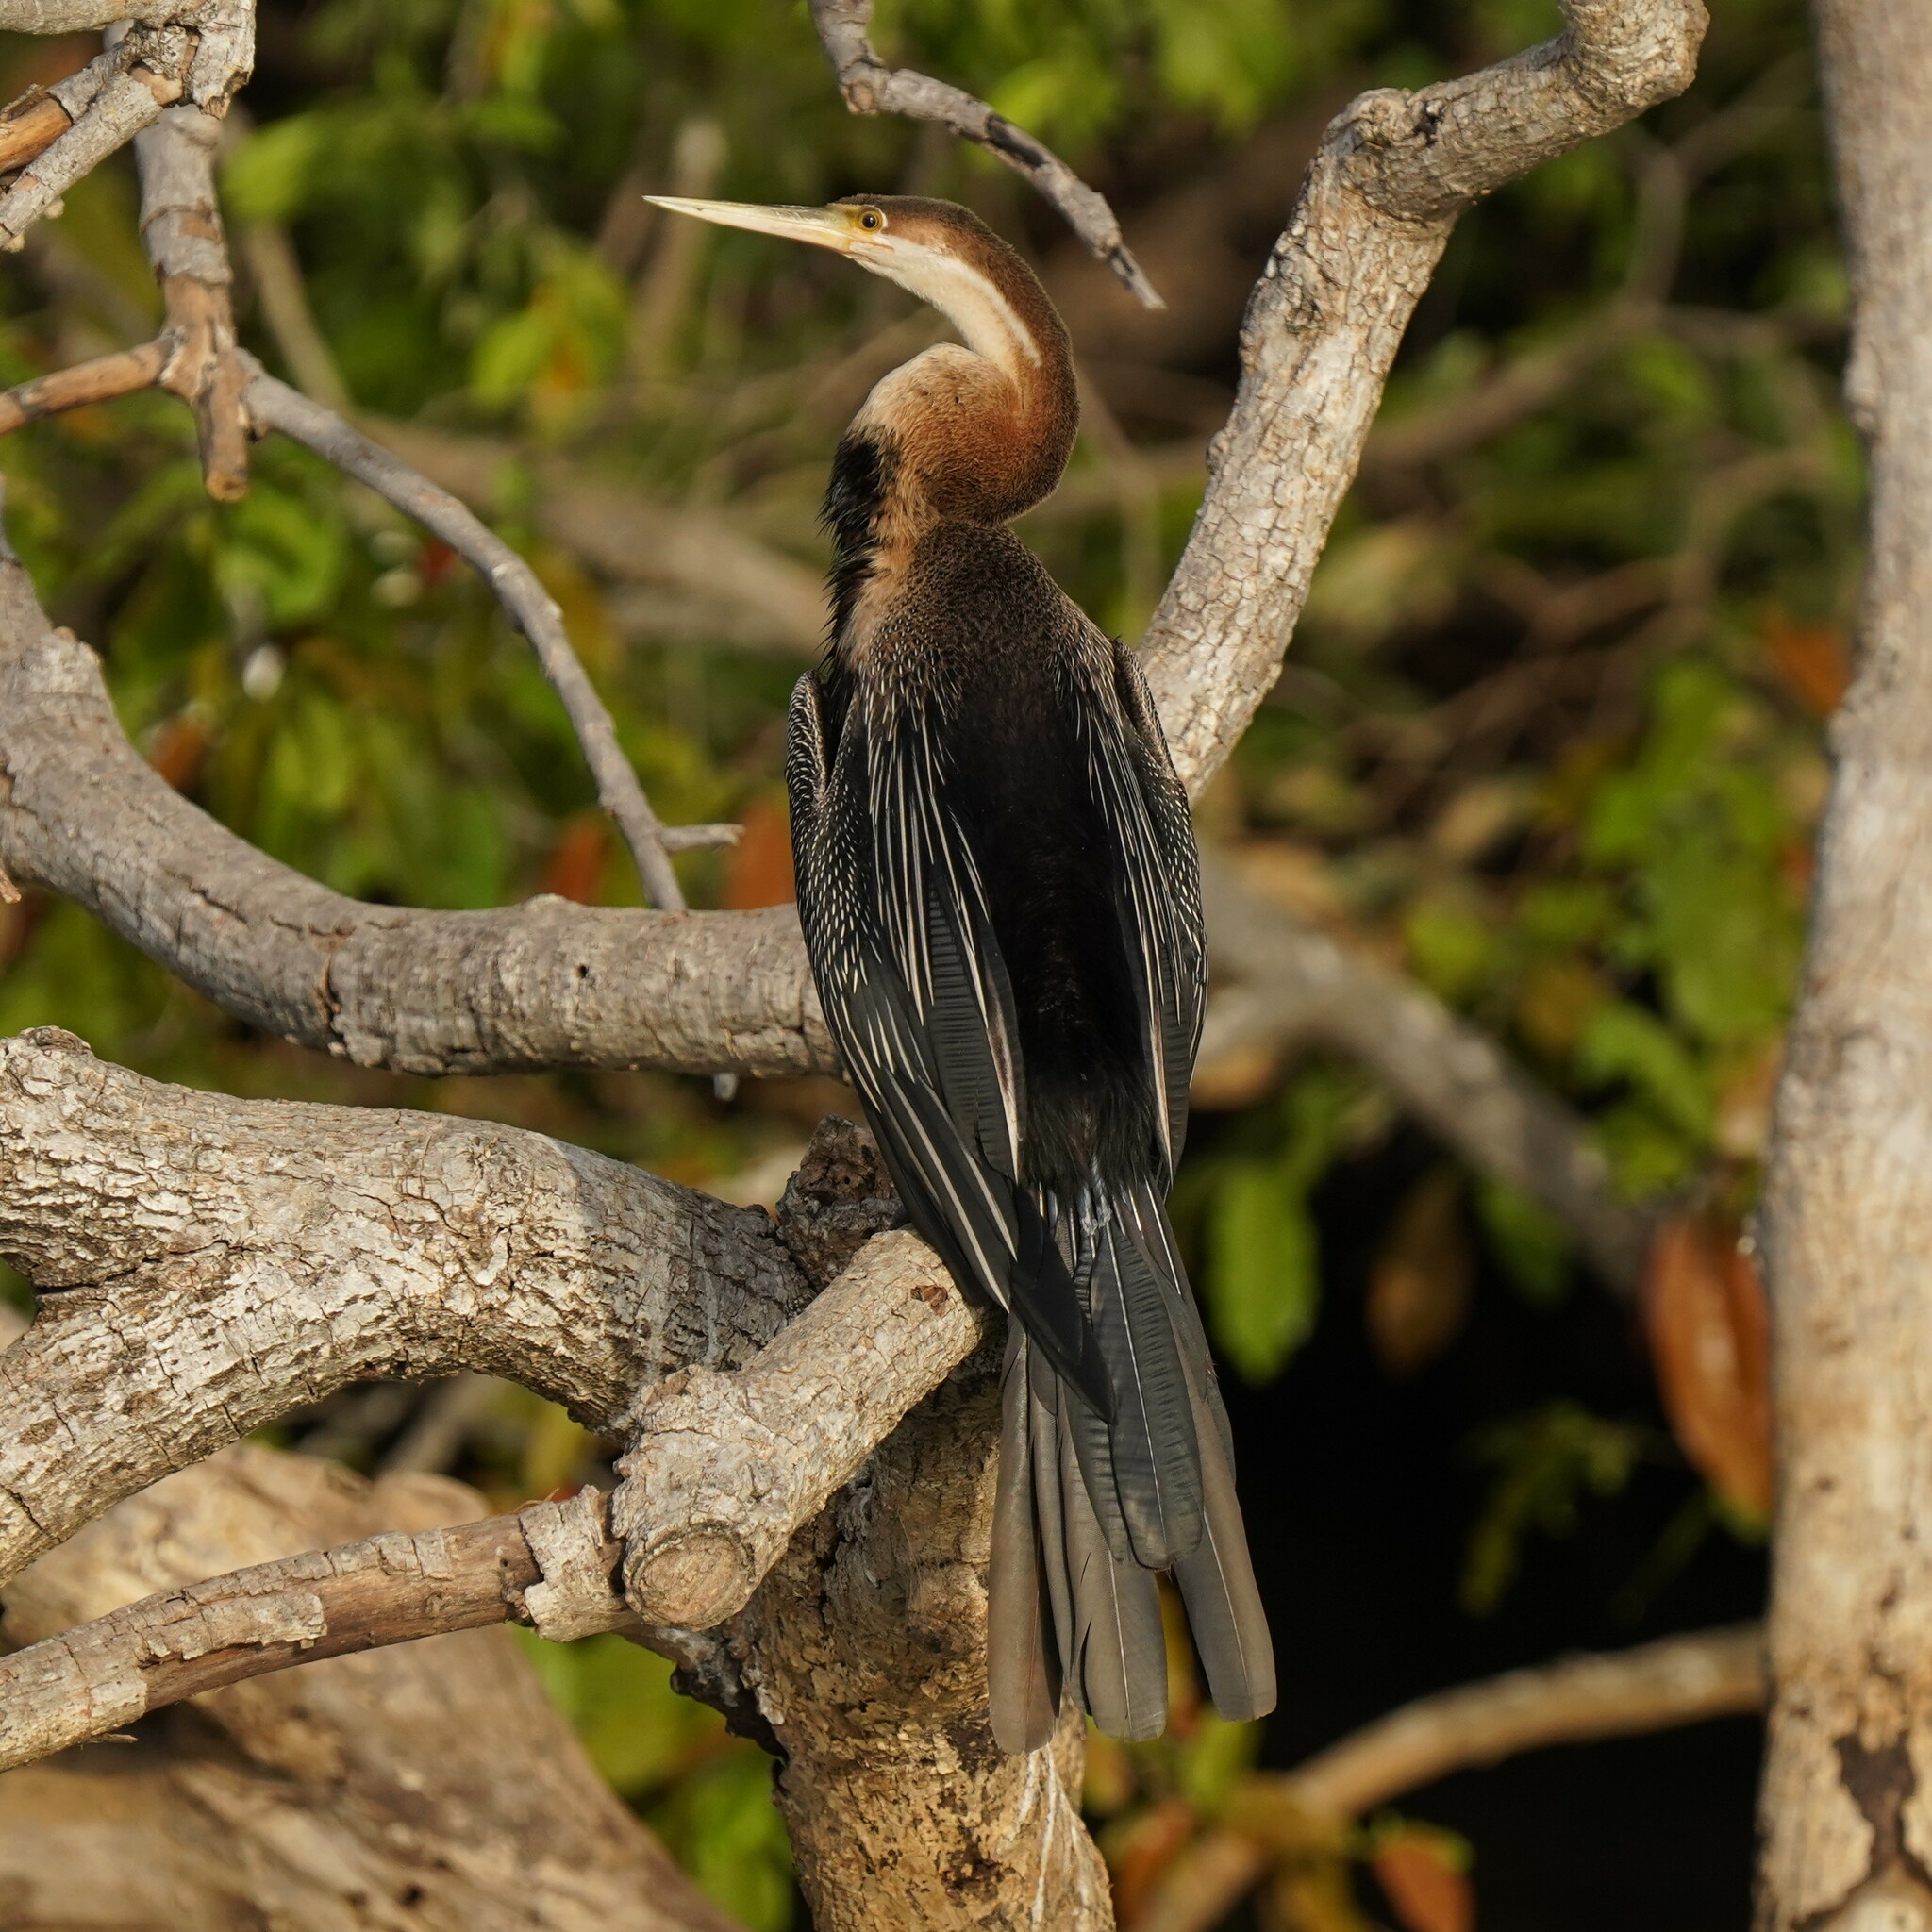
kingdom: Animalia
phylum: Chordata
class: Aves
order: Suliformes
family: Anhingidae
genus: Anhinga
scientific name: Anhinga rufa
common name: African darter
